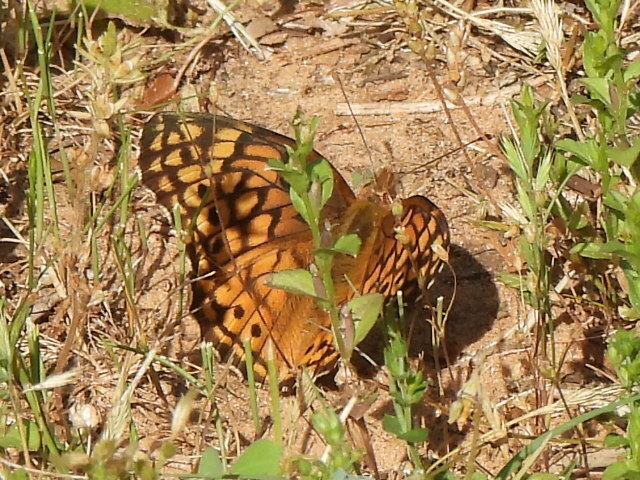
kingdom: Animalia
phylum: Arthropoda
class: Insecta
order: Lepidoptera
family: Nymphalidae
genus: Euptoieta
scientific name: Euptoieta claudia
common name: Variegated fritillary
